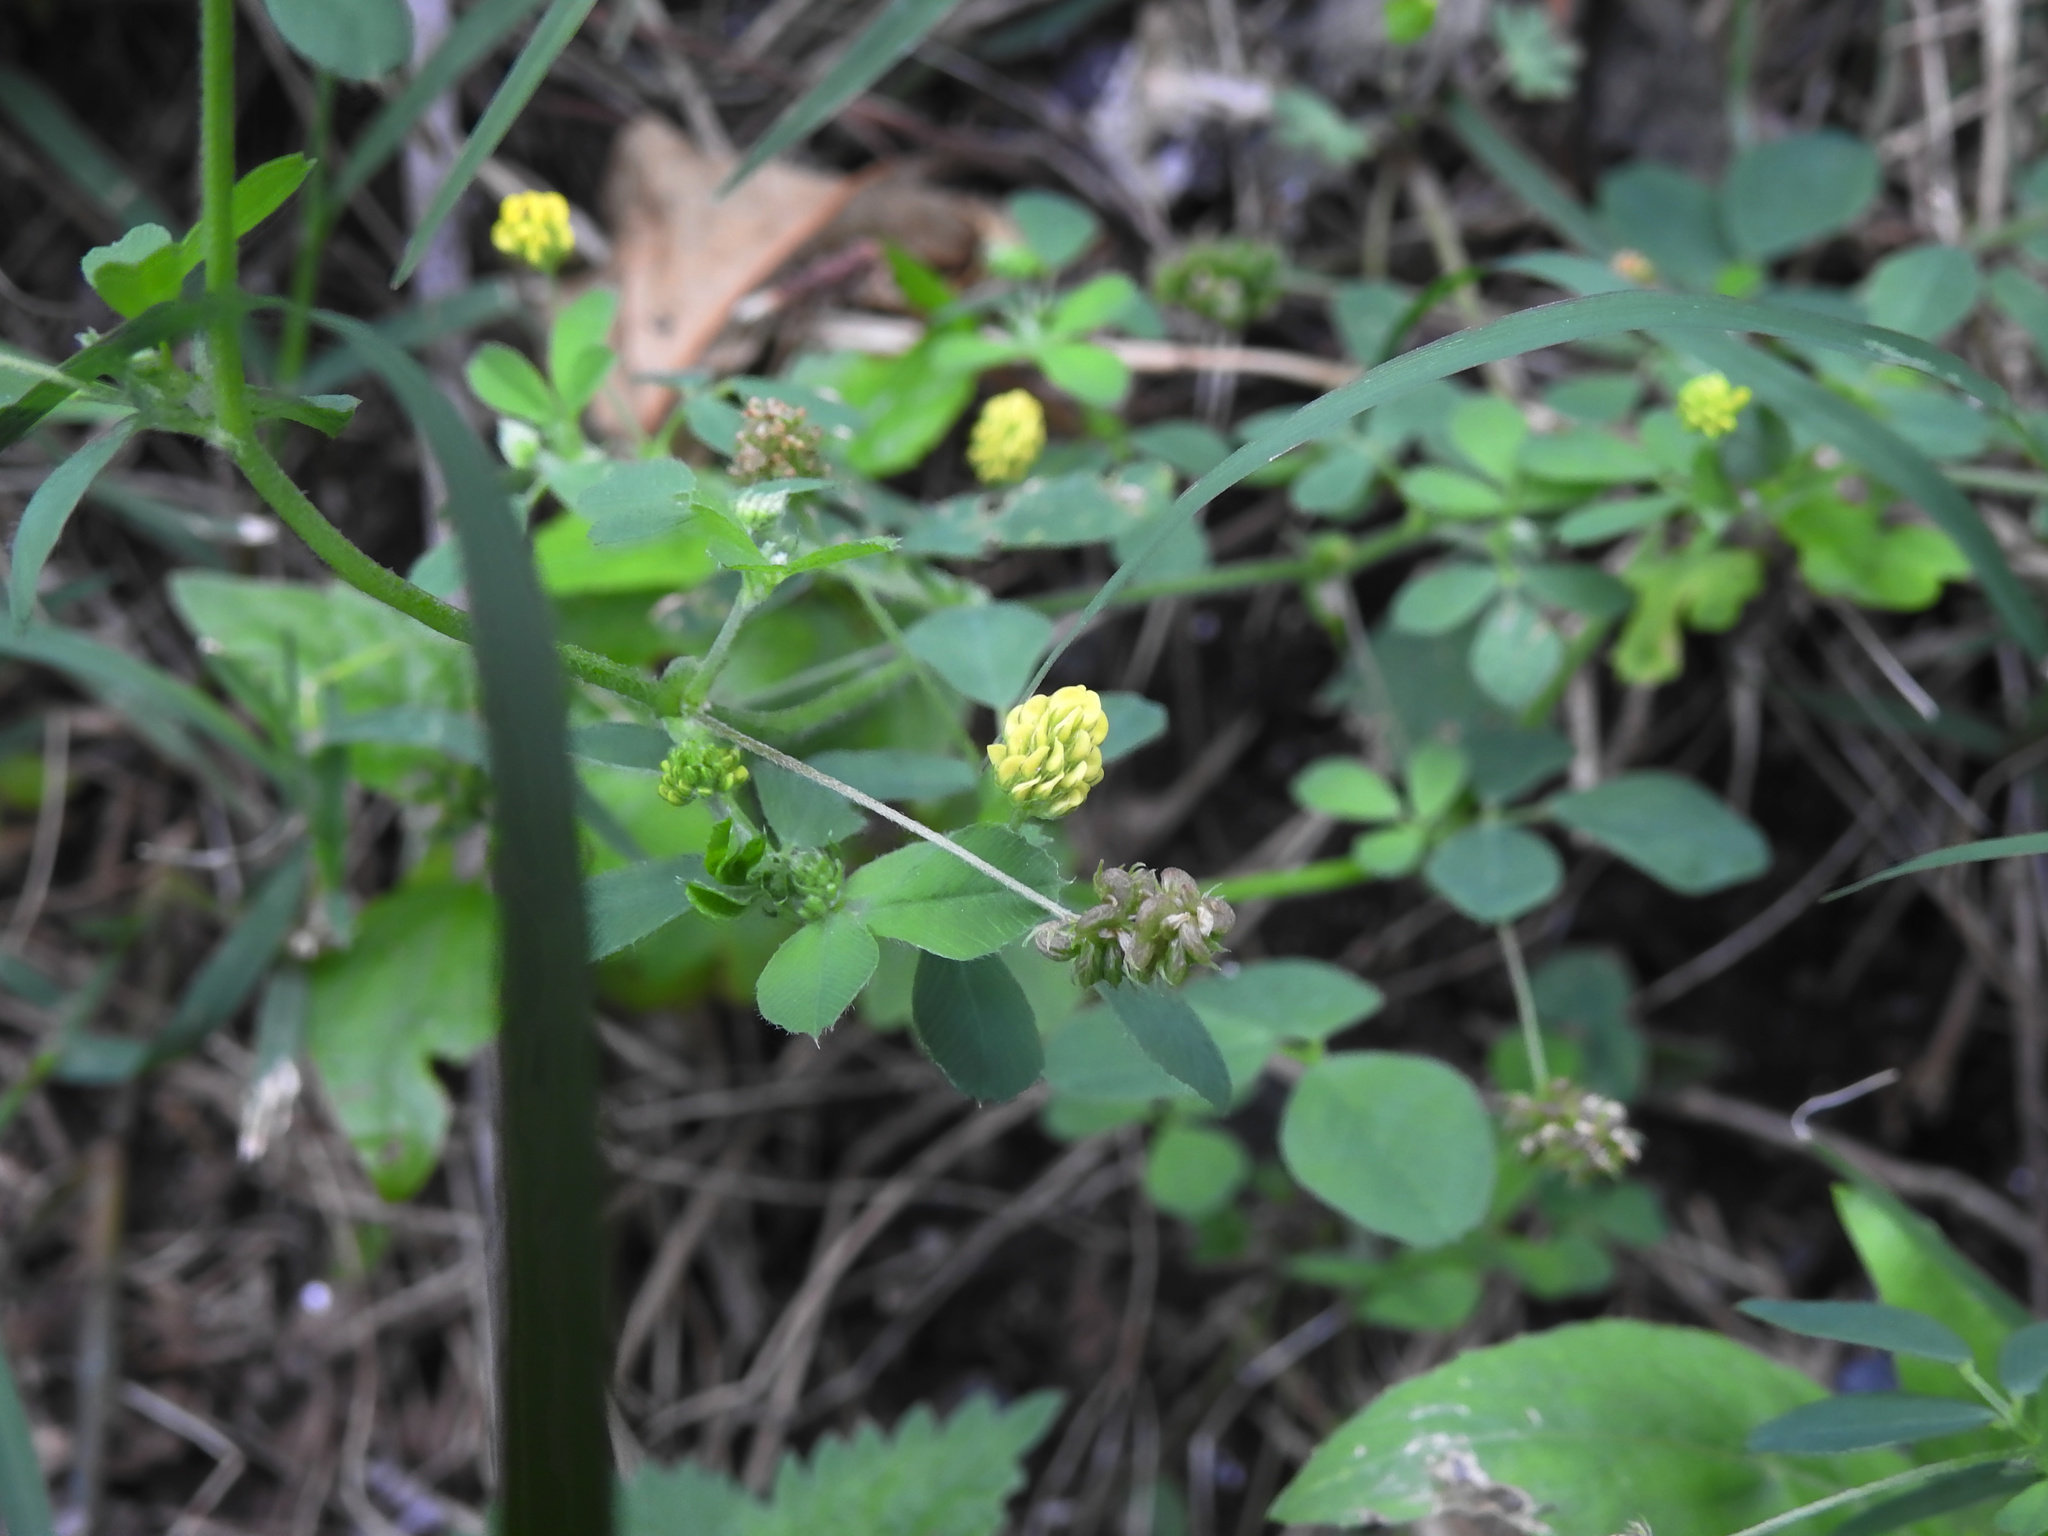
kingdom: Plantae
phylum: Tracheophyta
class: Magnoliopsida
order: Fabales
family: Fabaceae
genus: Medicago
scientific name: Medicago lupulina
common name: Black medick
